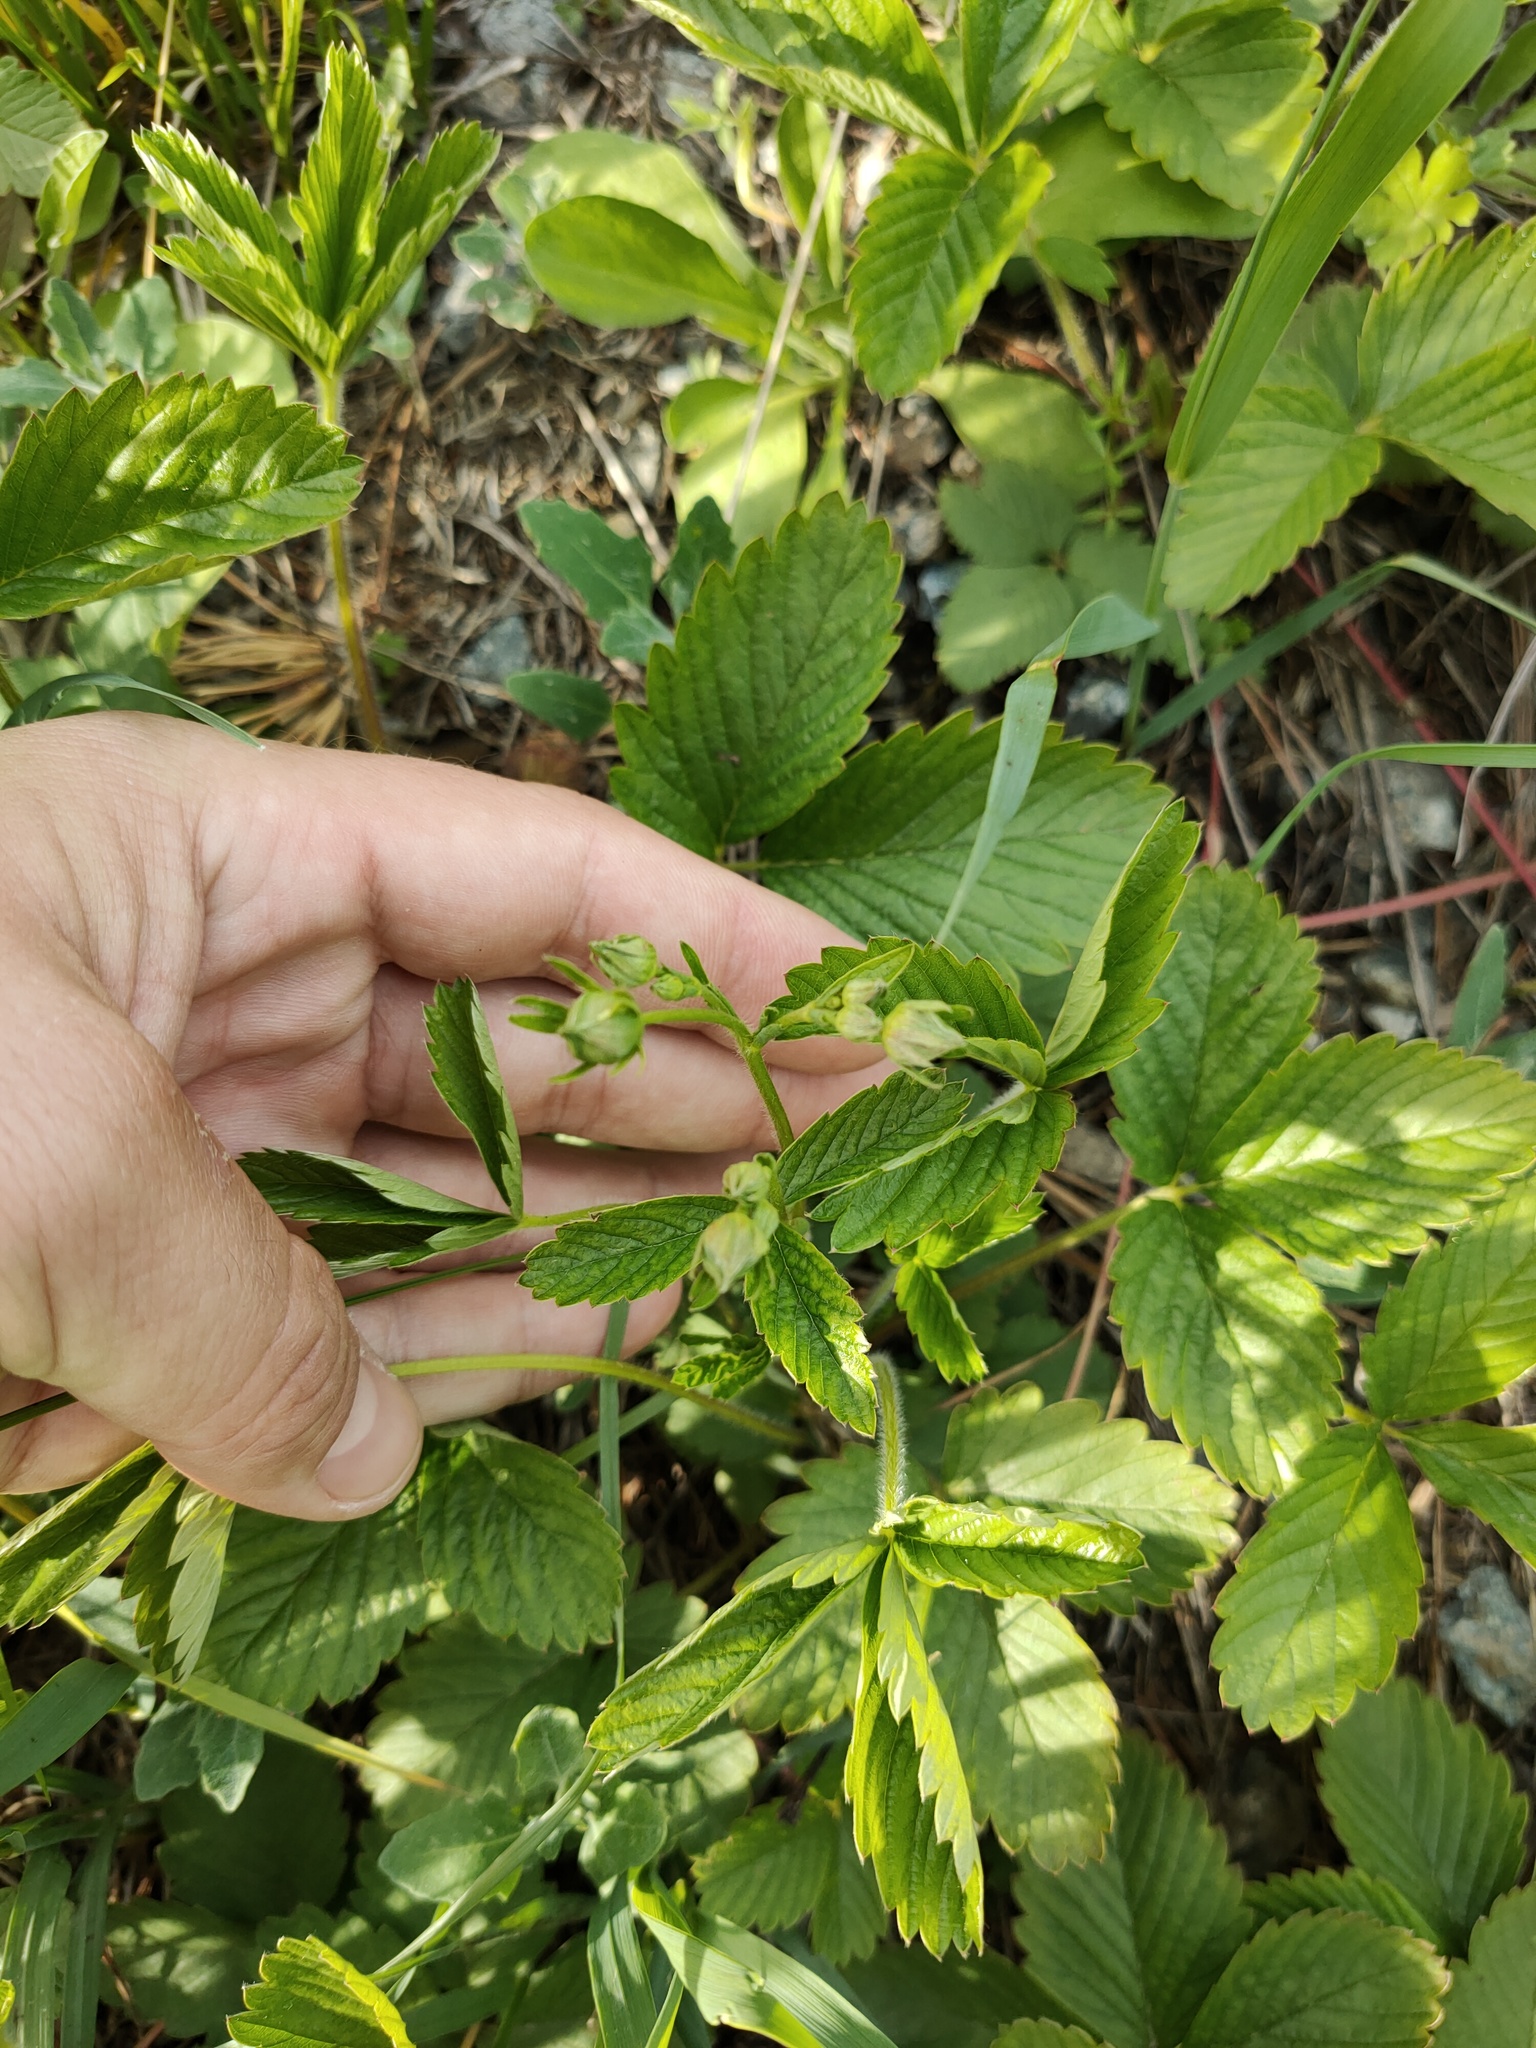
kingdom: Plantae
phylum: Tracheophyta
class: Magnoliopsida
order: Rosales
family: Rosaceae
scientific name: Rosaceae
